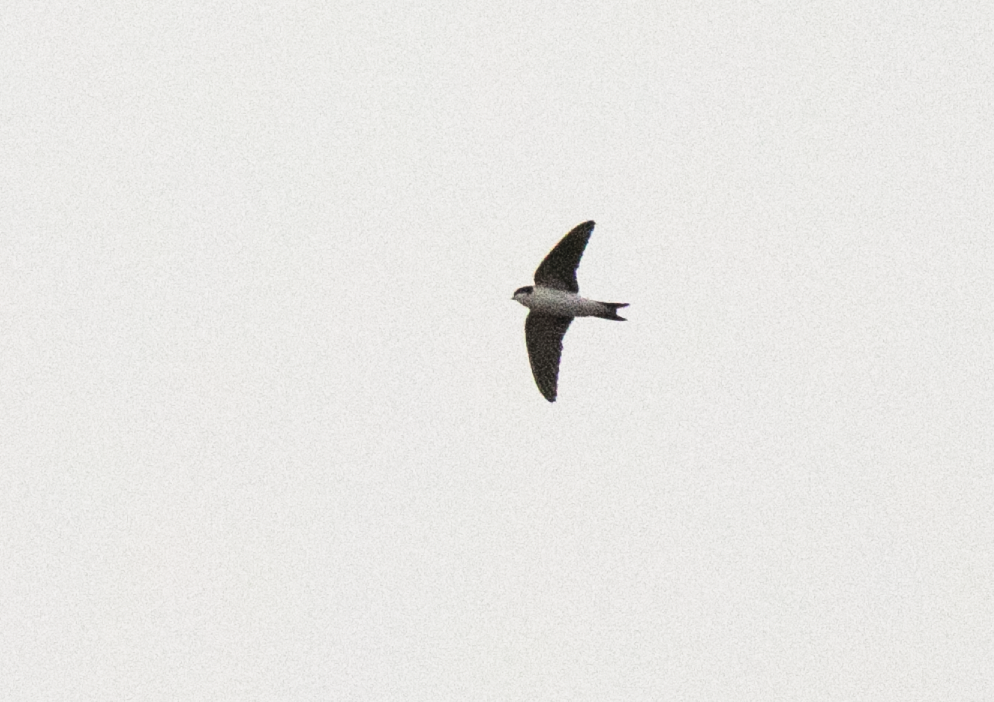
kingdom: Animalia
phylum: Chordata
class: Aves
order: Passeriformes
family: Hirundinidae
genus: Delichon
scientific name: Delichon urbicum
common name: Common house martin
